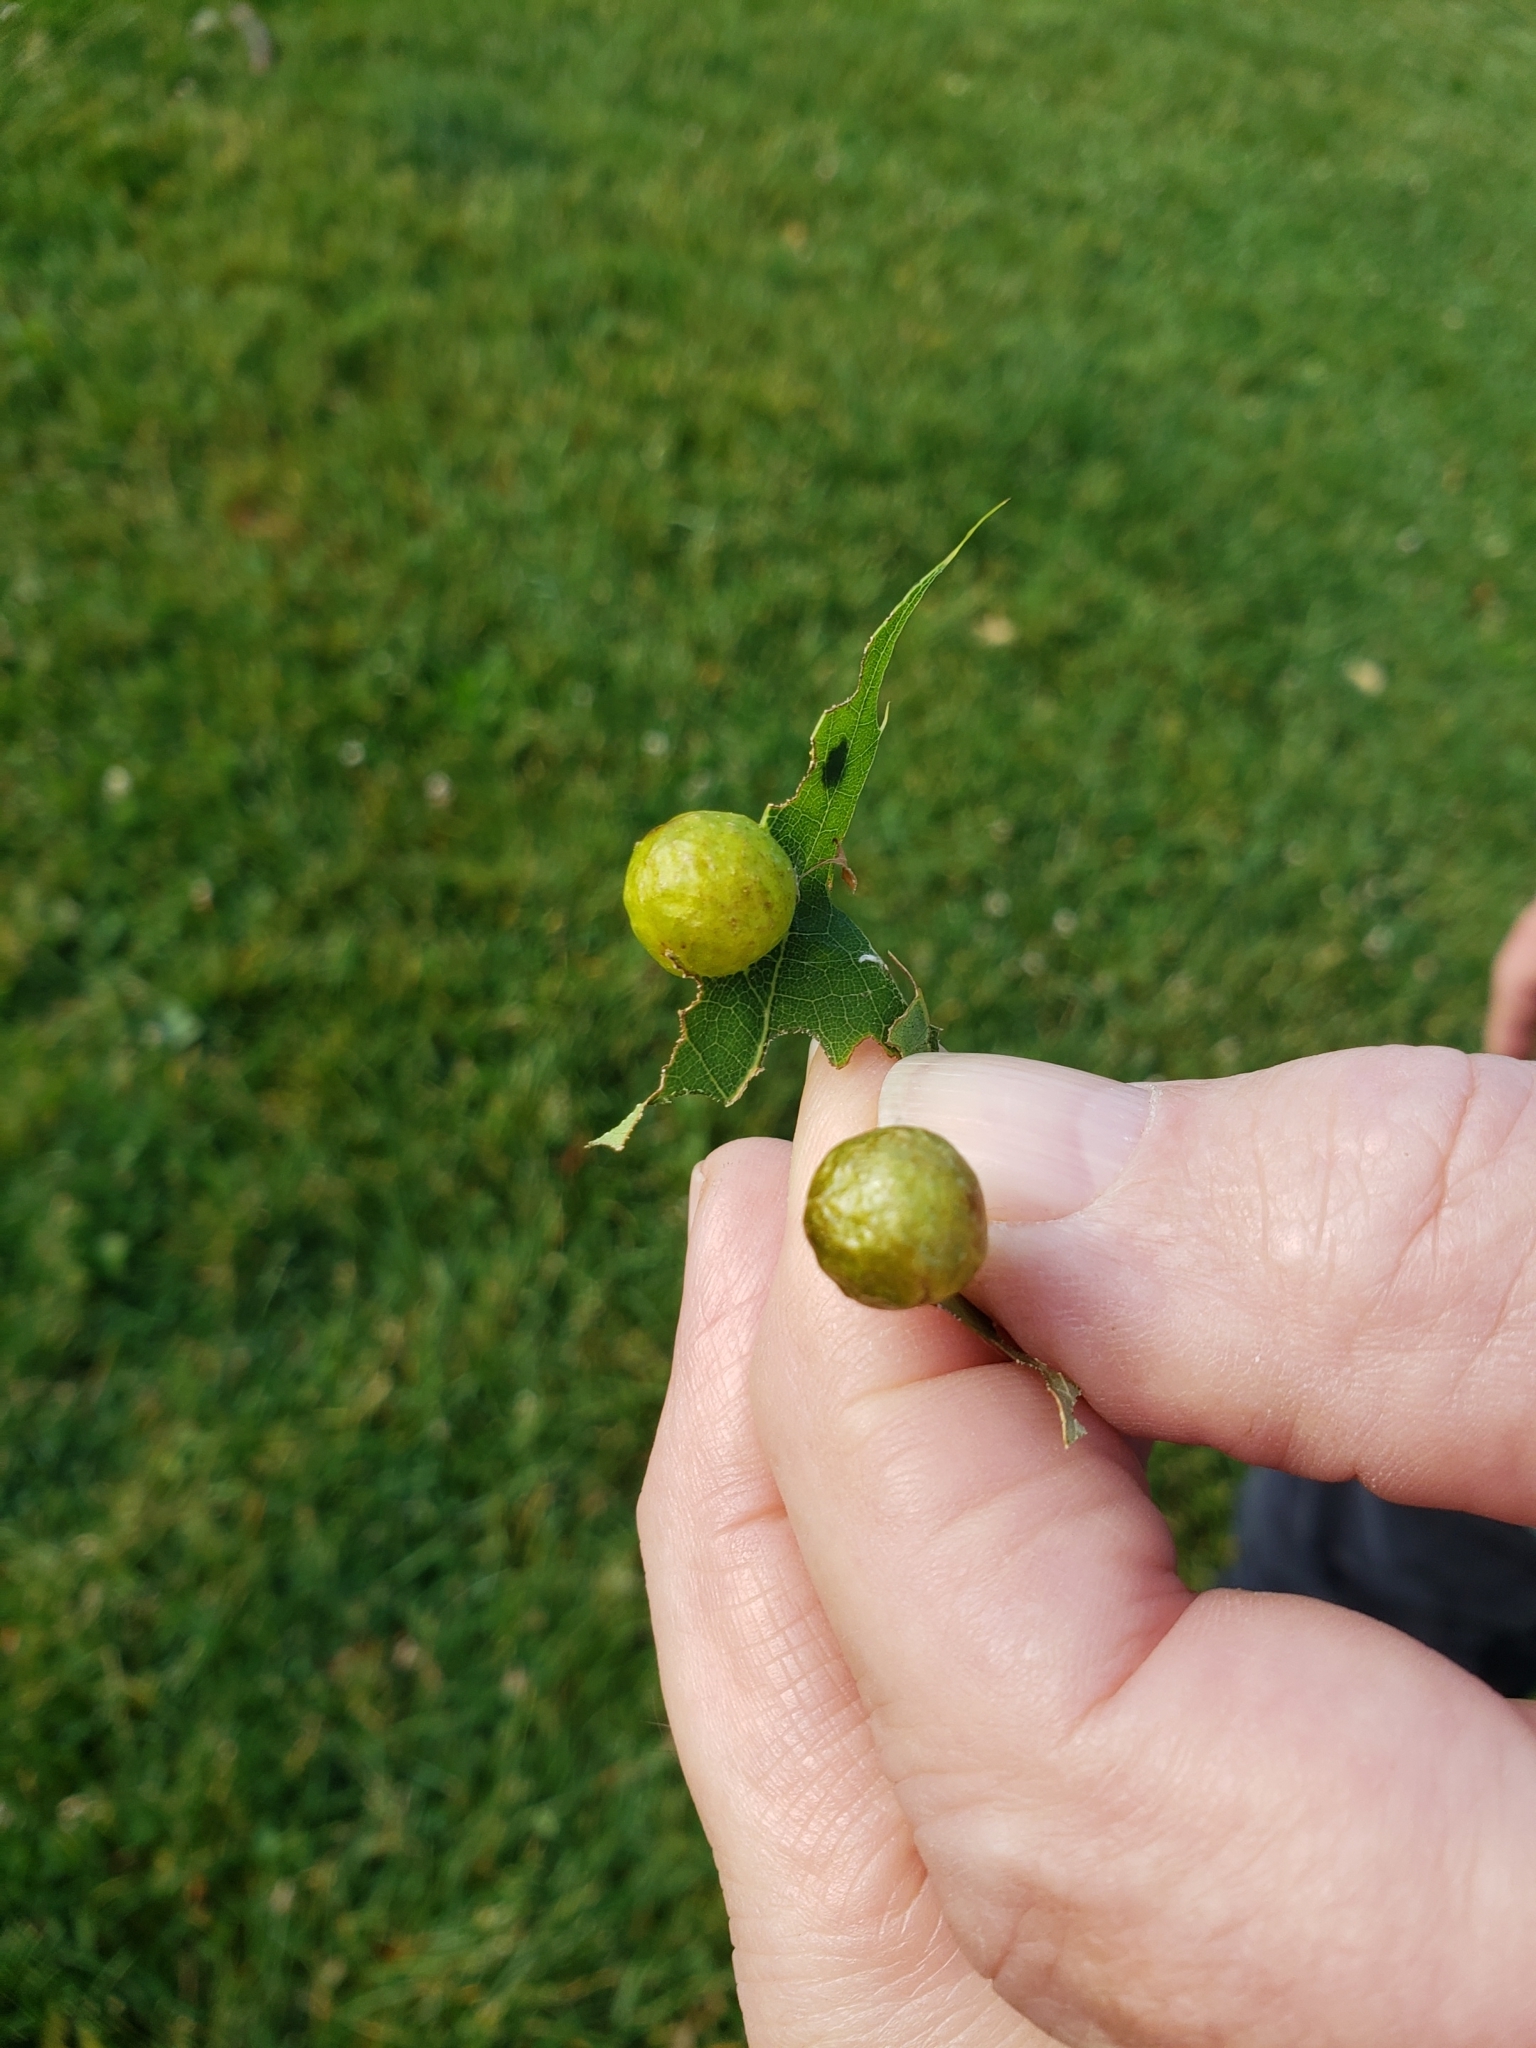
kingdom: Animalia
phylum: Arthropoda
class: Insecta
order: Hymenoptera
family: Cynipidae
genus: Amphibolips
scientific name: Amphibolips
